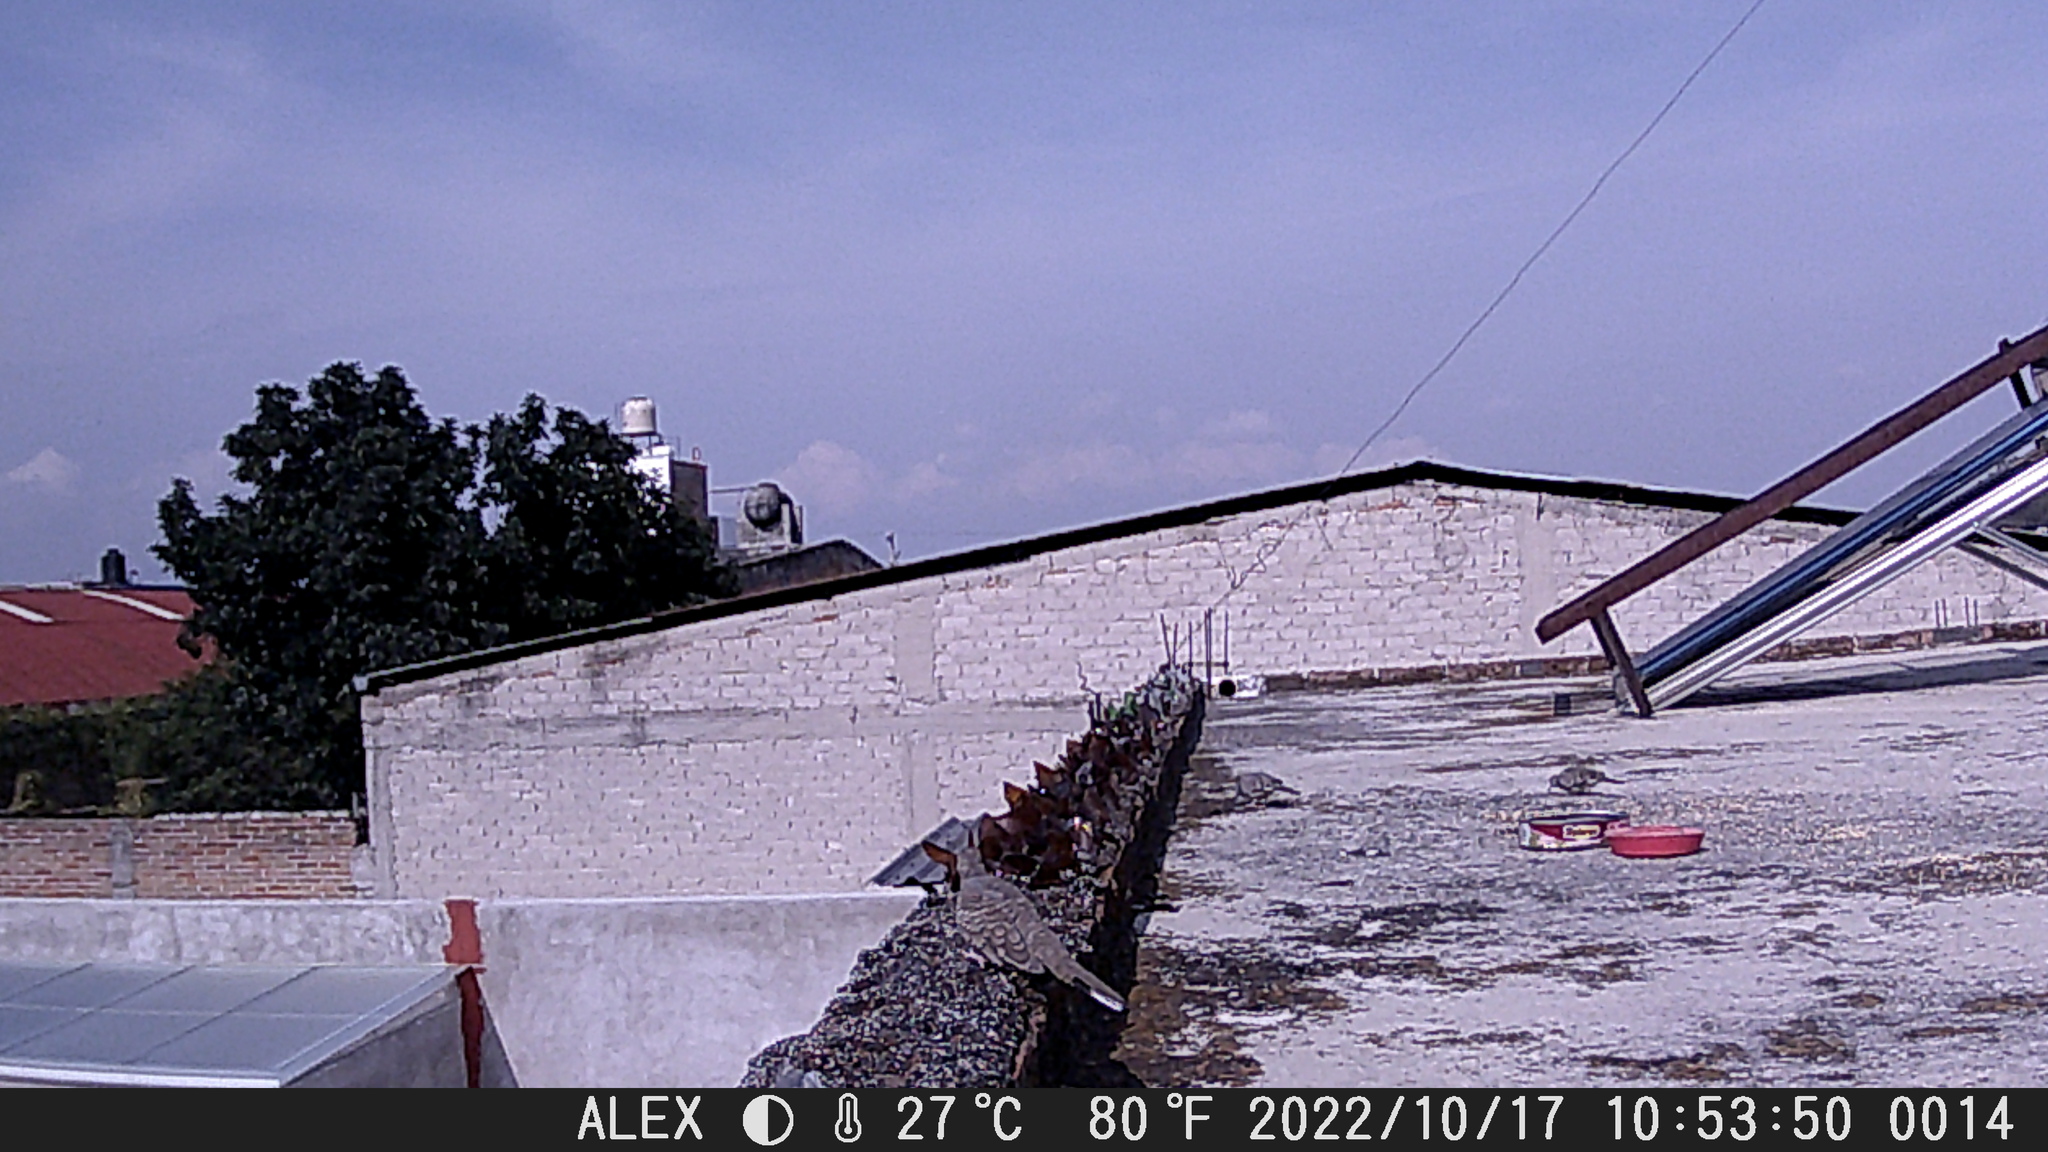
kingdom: Animalia
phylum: Chordata
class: Aves
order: Columbiformes
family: Columbidae
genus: Columbina
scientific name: Columbina inca
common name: Inca dove
